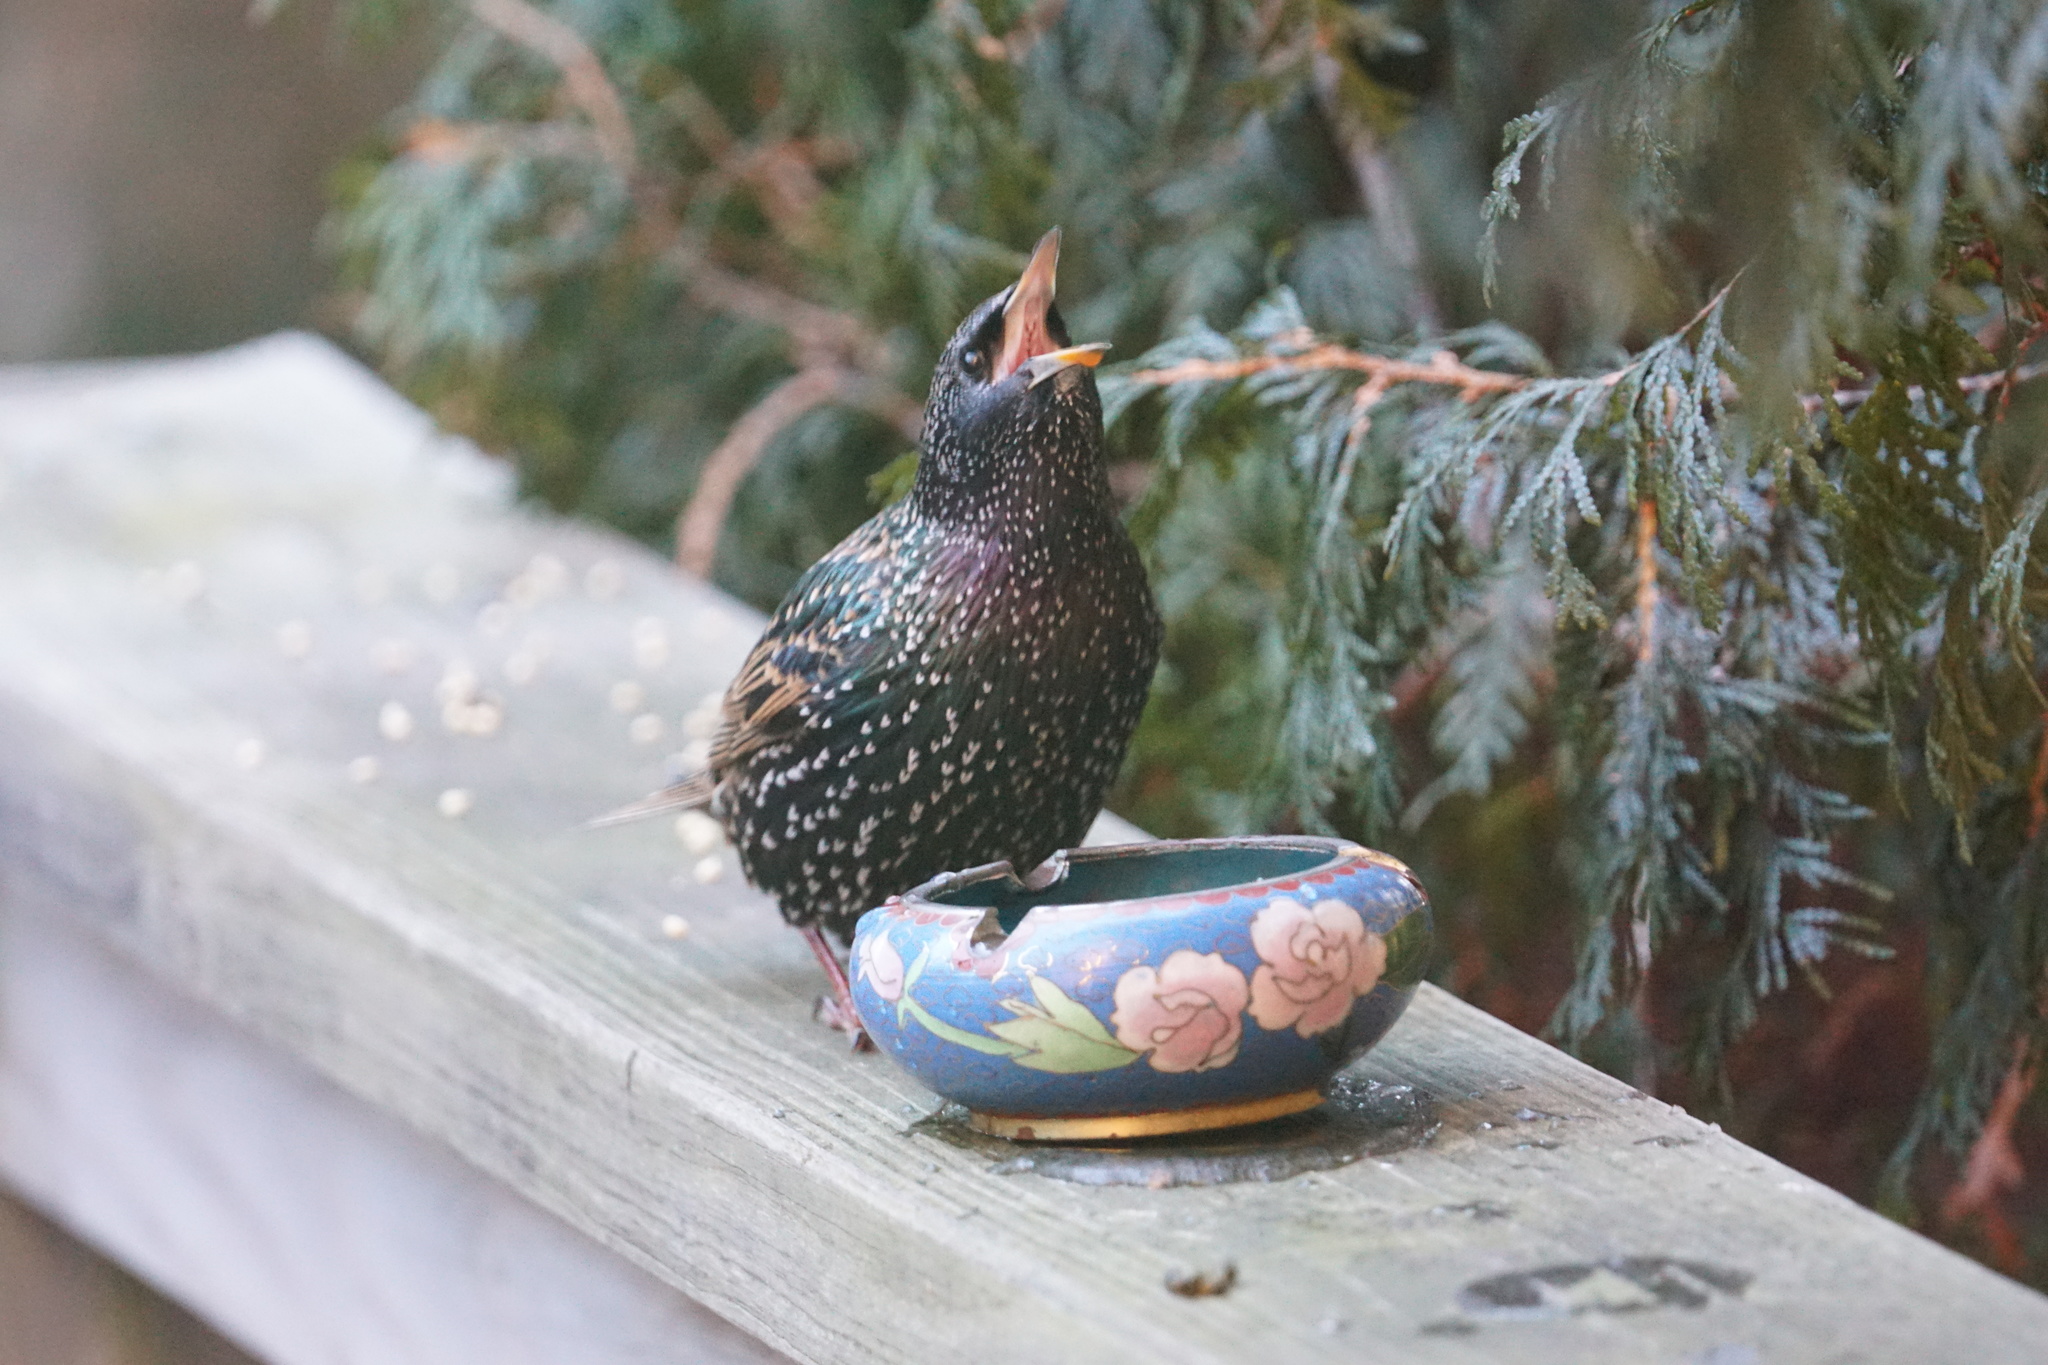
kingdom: Animalia
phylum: Chordata
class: Aves
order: Passeriformes
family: Sturnidae
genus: Sturnus
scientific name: Sturnus vulgaris
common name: Common starling
